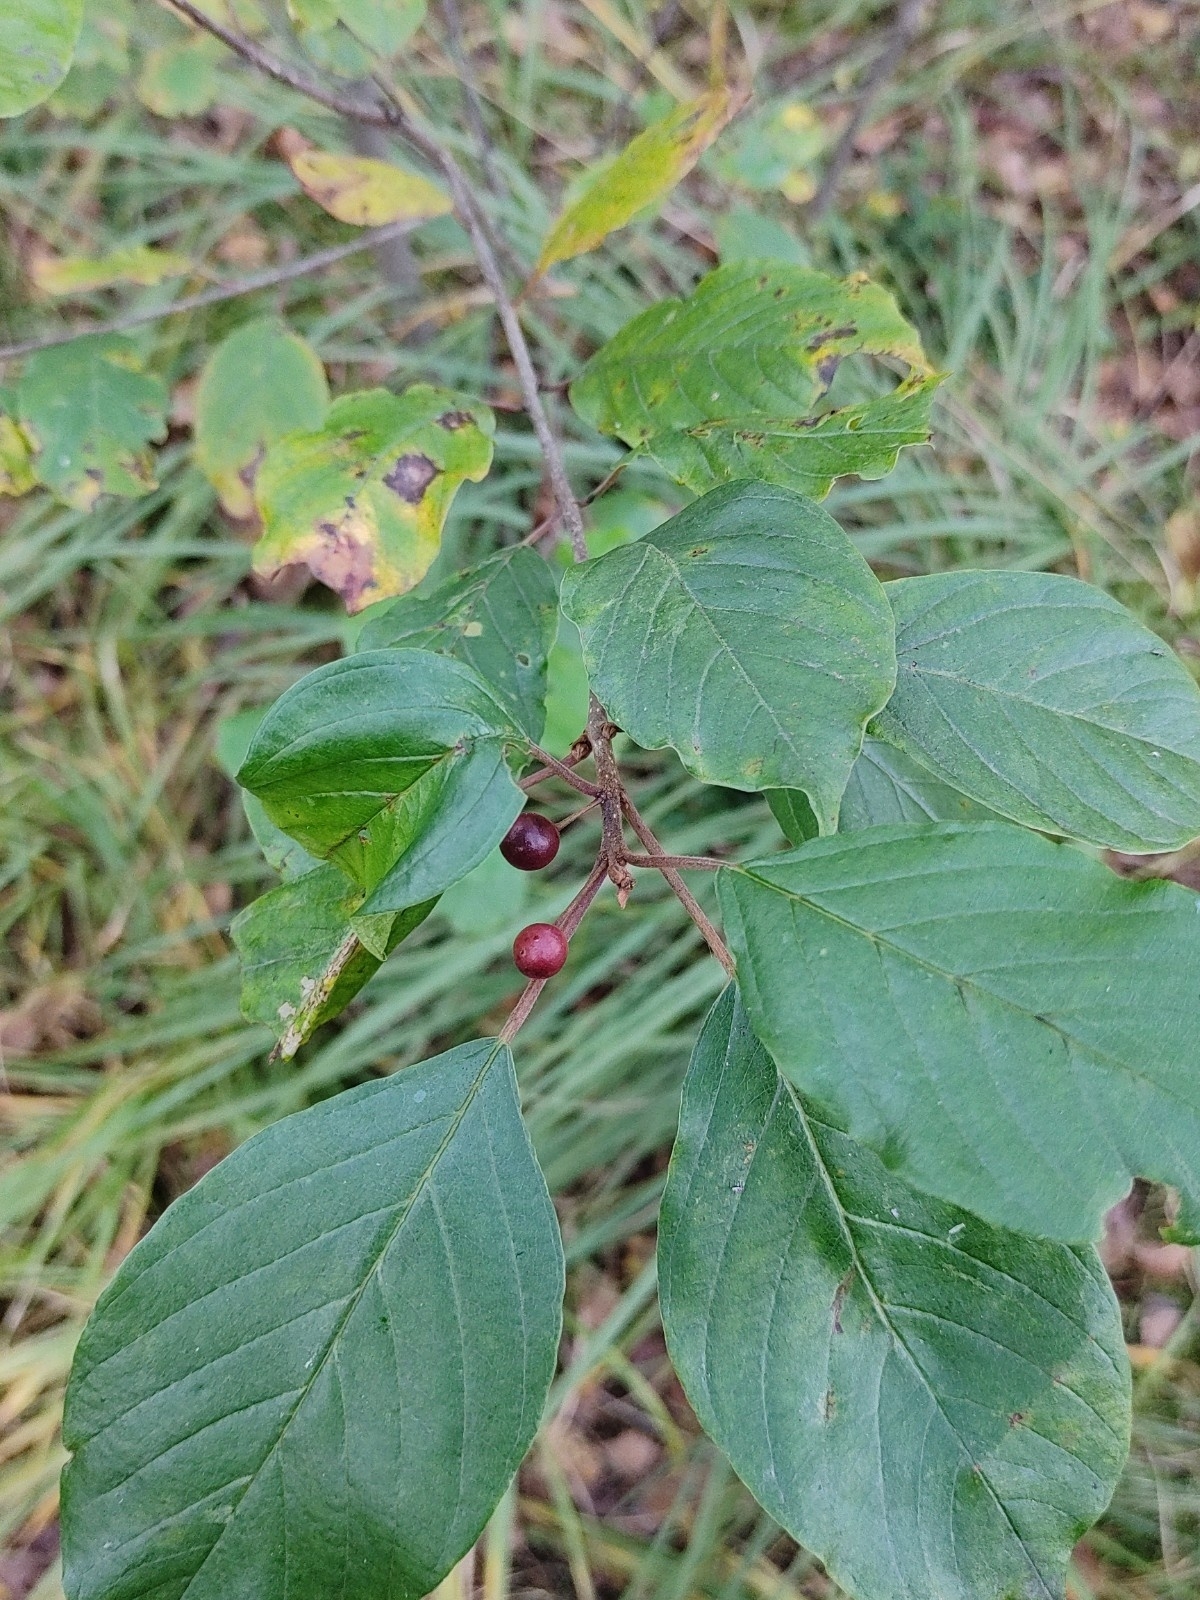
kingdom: Plantae
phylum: Tracheophyta
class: Magnoliopsida
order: Rosales
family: Rhamnaceae
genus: Frangula
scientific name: Frangula alnus
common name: Alder buckthorn
